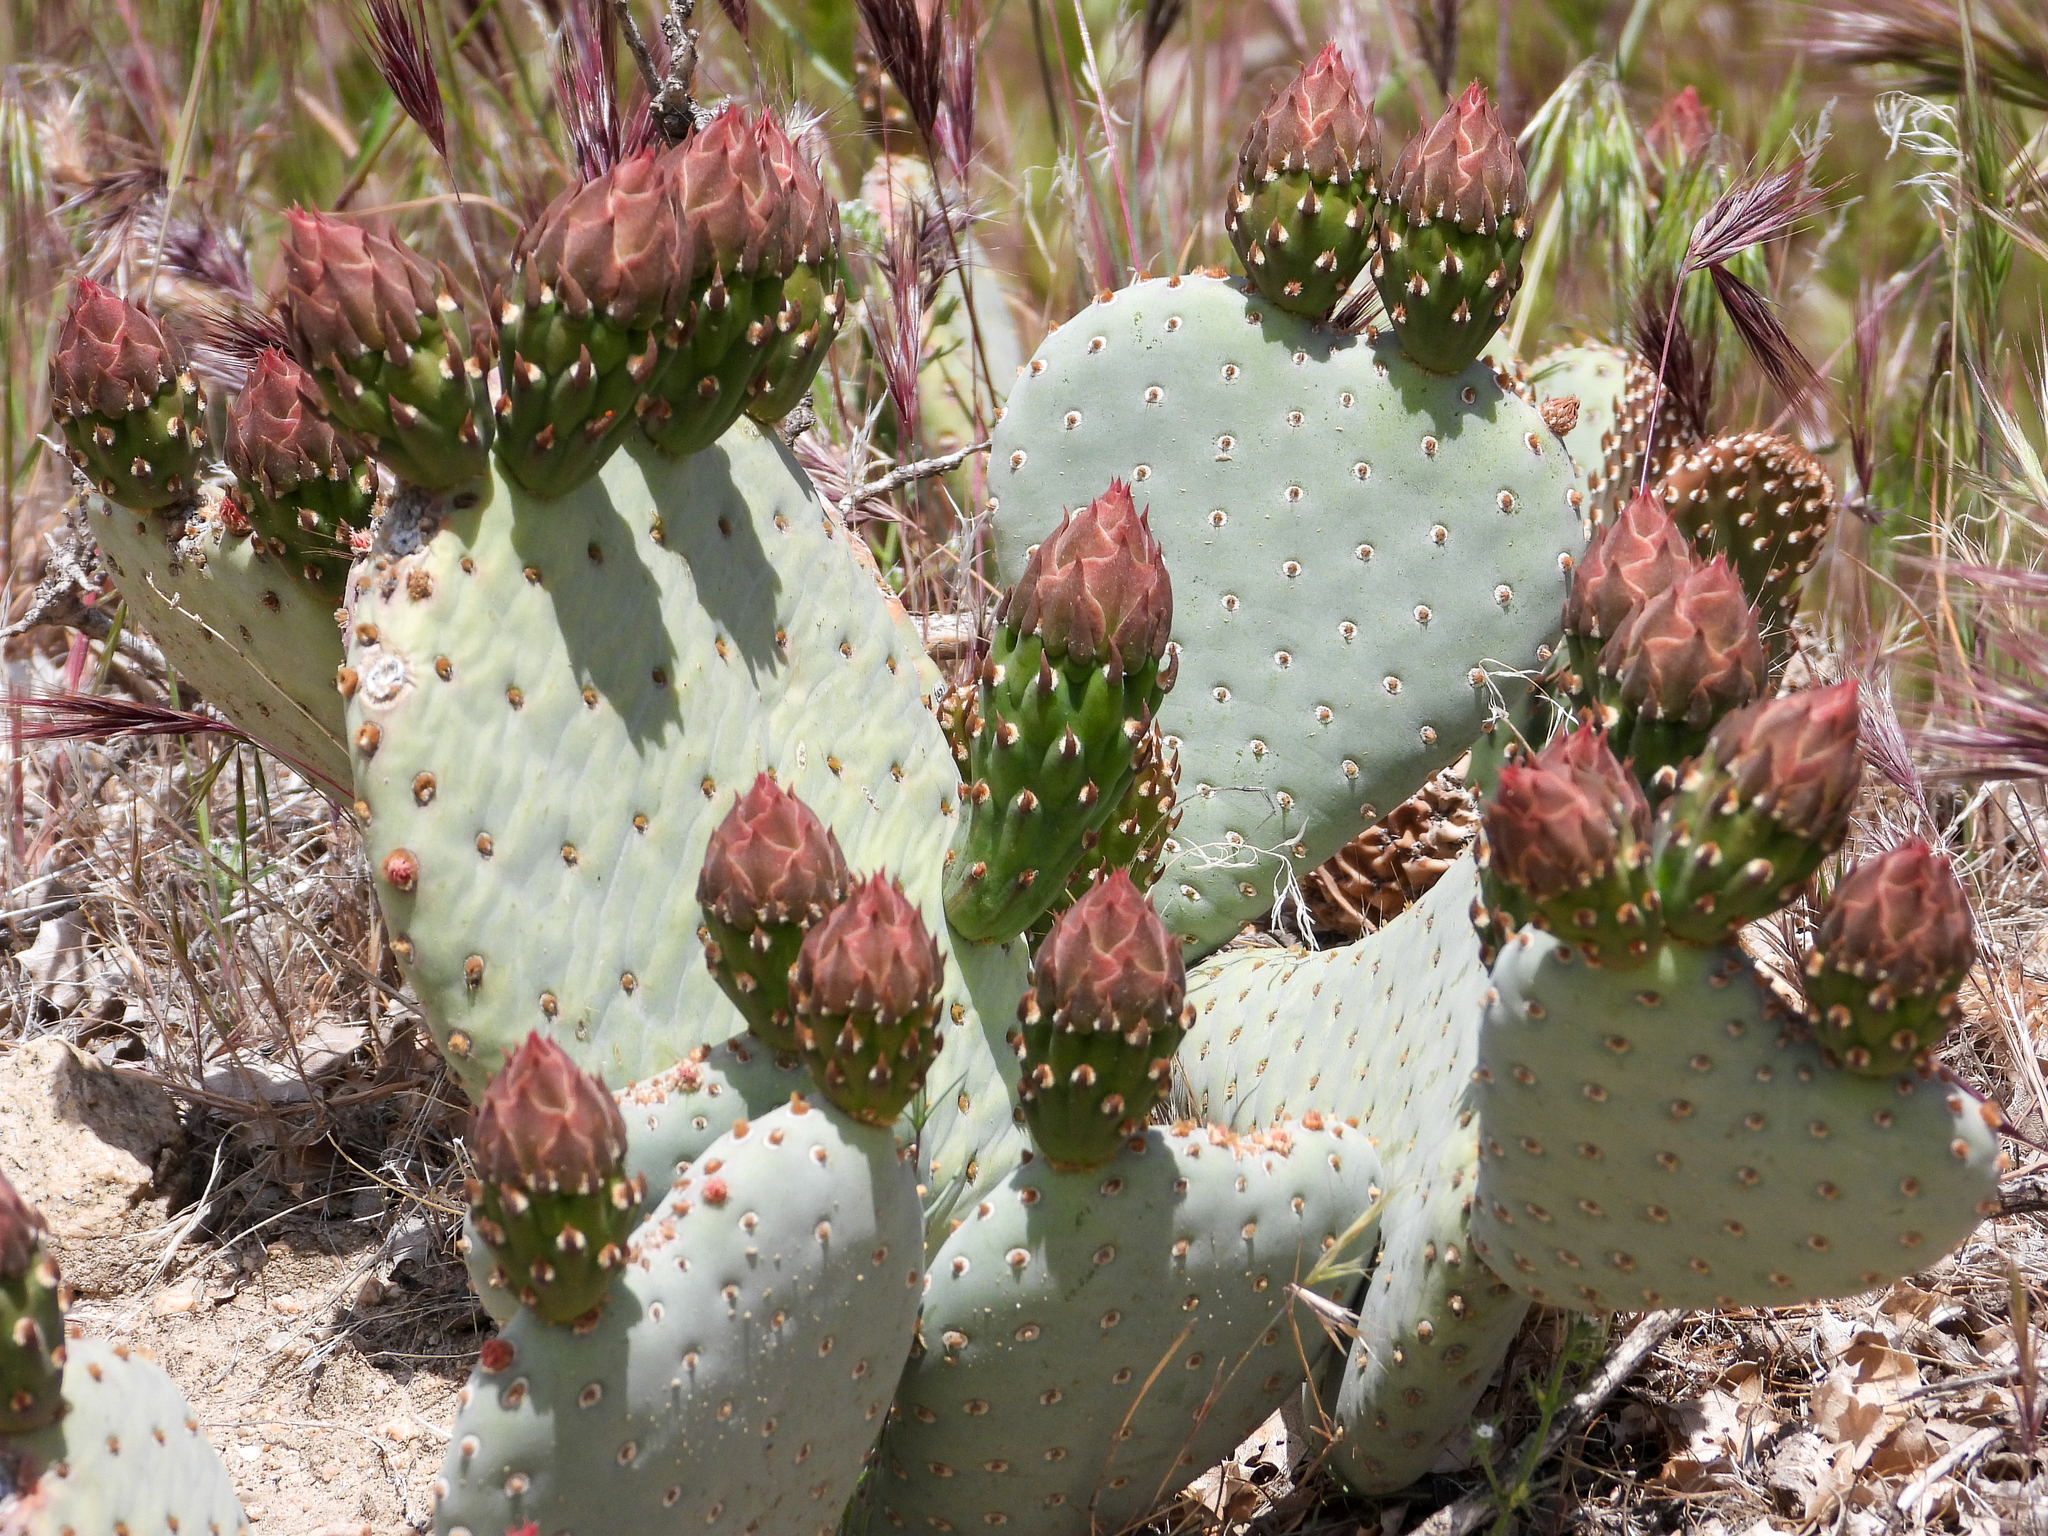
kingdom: Plantae
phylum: Tracheophyta
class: Magnoliopsida
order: Caryophyllales
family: Cactaceae
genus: Opuntia
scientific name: Opuntia basilaris
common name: Beavertail prickly-pear
